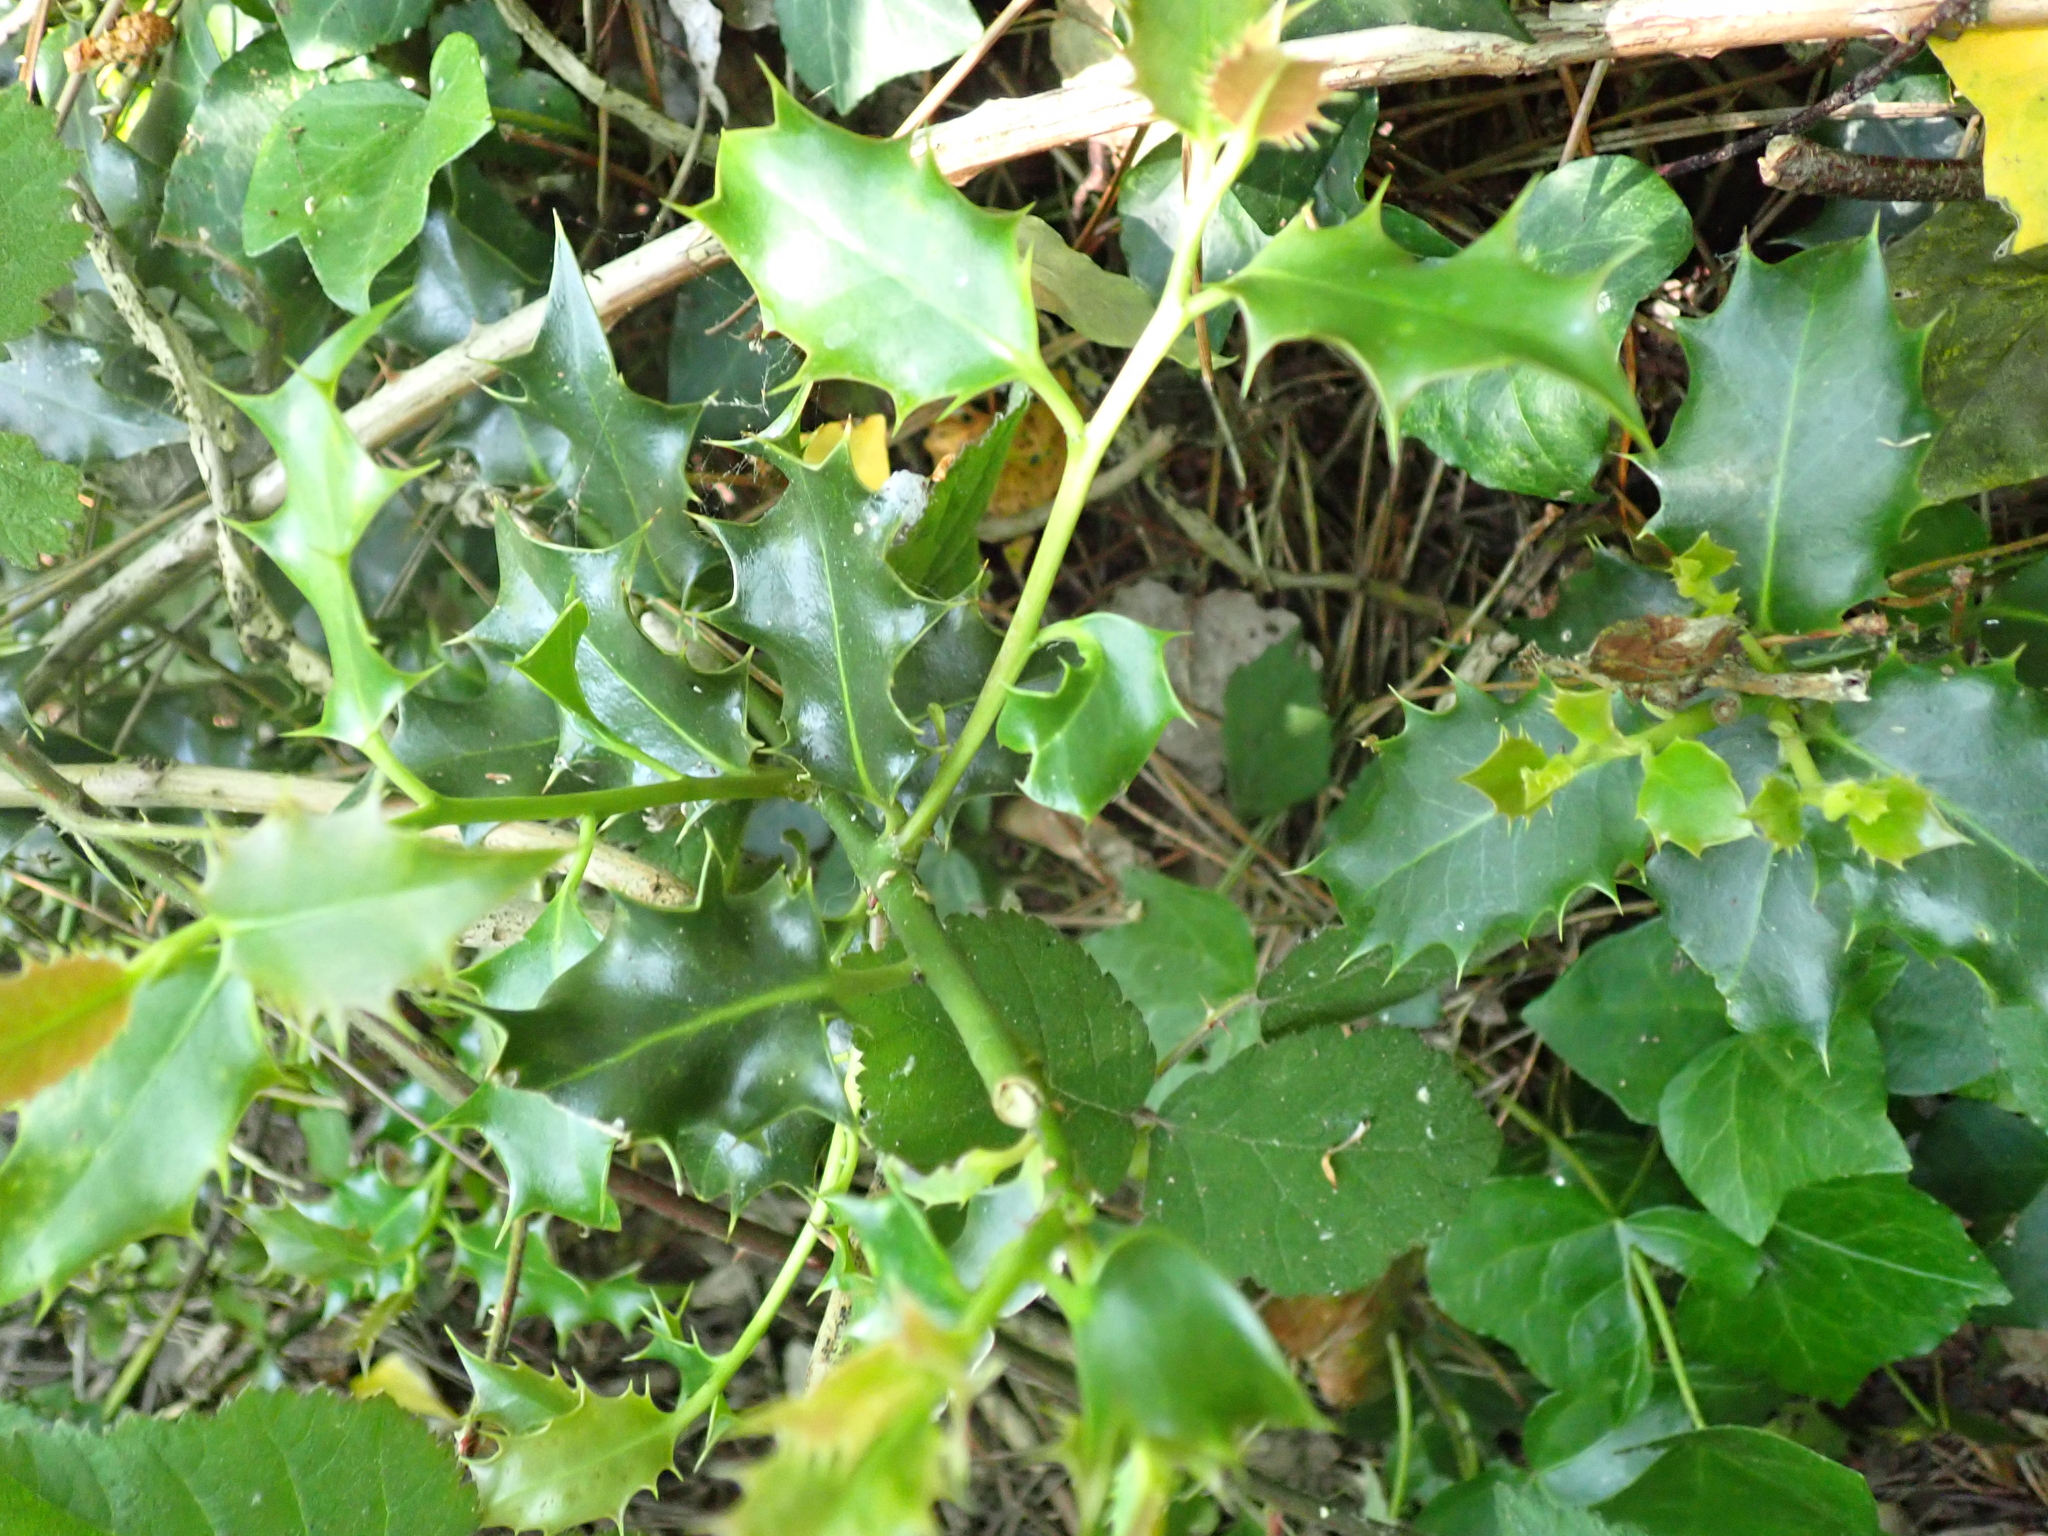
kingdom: Plantae
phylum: Tracheophyta
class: Magnoliopsida
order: Aquifoliales
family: Aquifoliaceae
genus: Ilex
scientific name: Ilex aquifolium
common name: English holly
